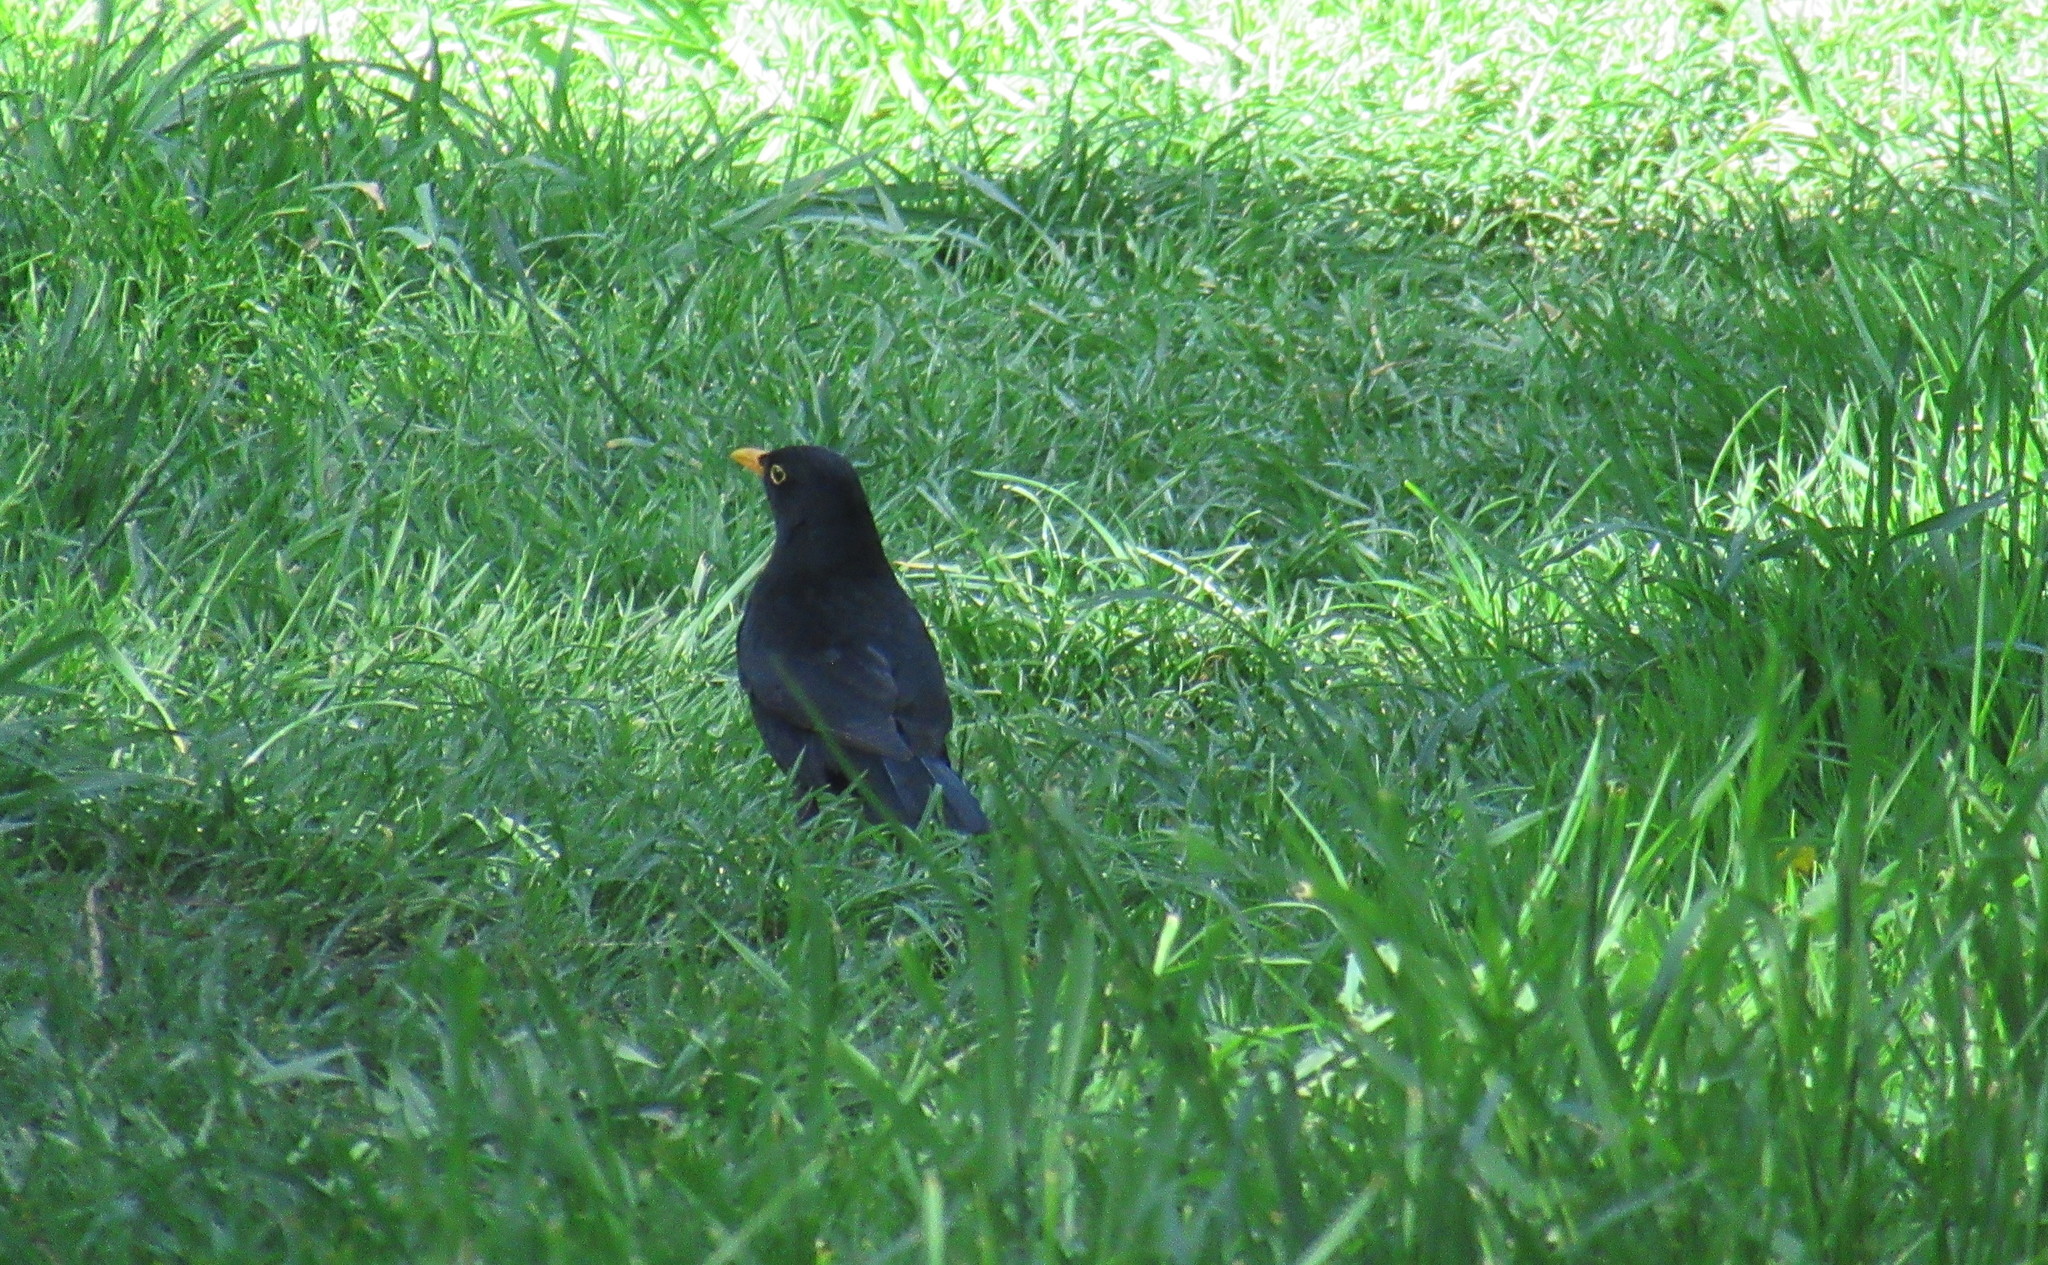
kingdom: Animalia
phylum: Chordata
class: Aves
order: Passeriformes
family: Turdidae
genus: Turdus
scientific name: Turdus merula
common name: Common blackbird
